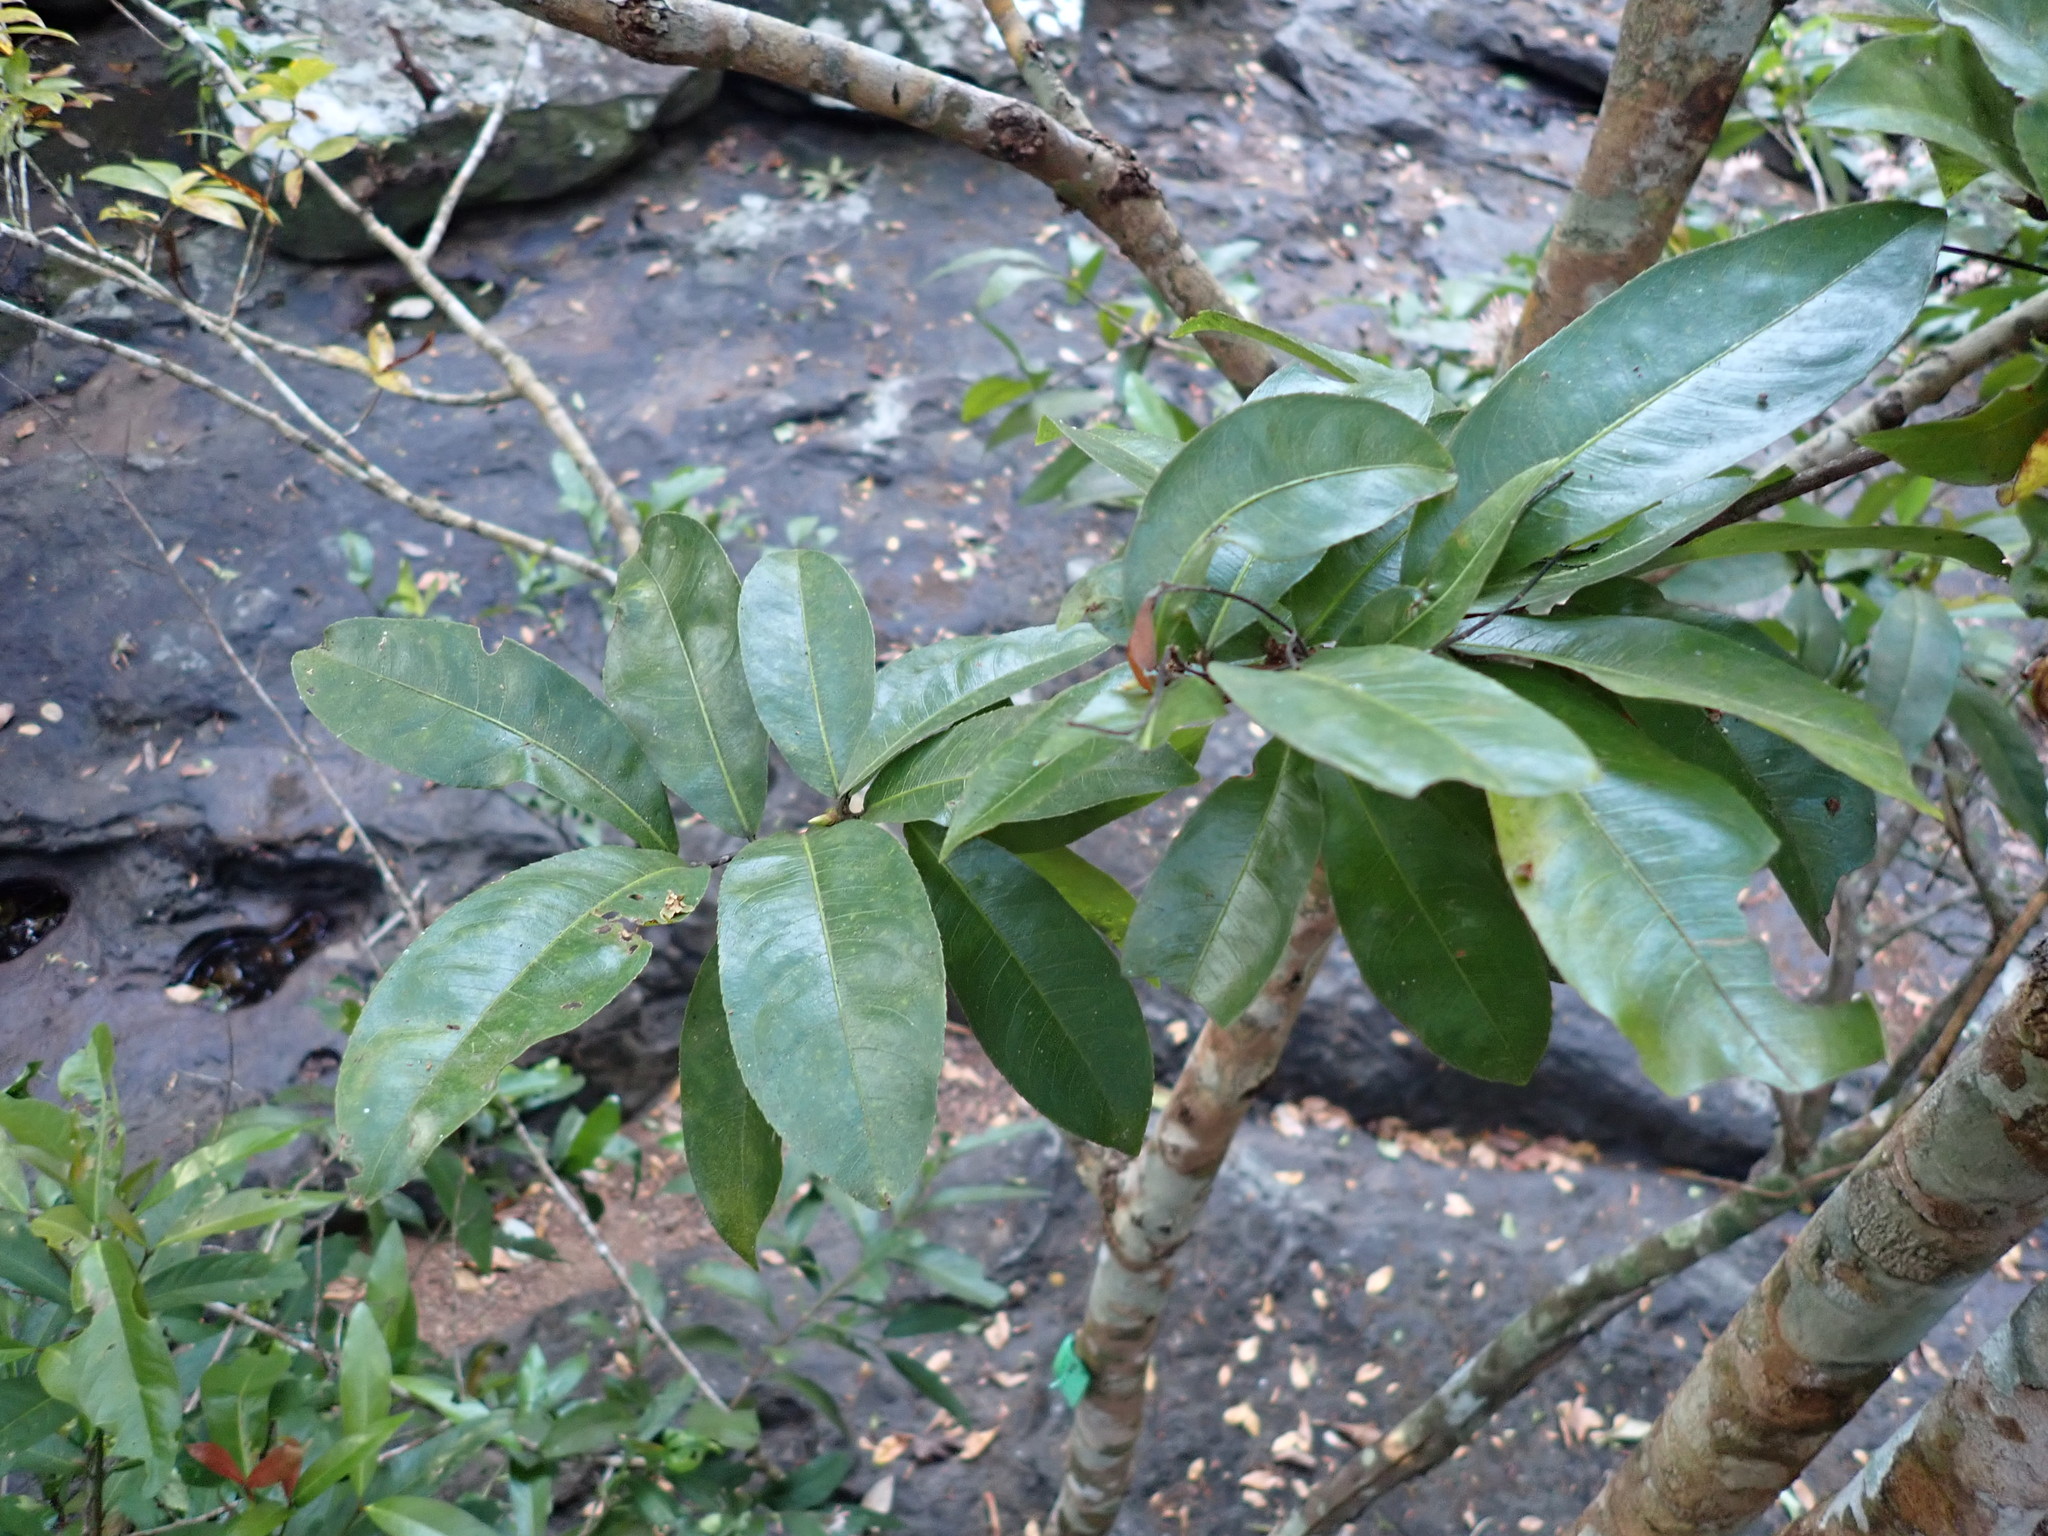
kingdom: Plantae
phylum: Tracheophyta
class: Magnoliopsida
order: Malpighiales
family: Ochnaceae
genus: Gomphia
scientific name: Gomphia serrata
